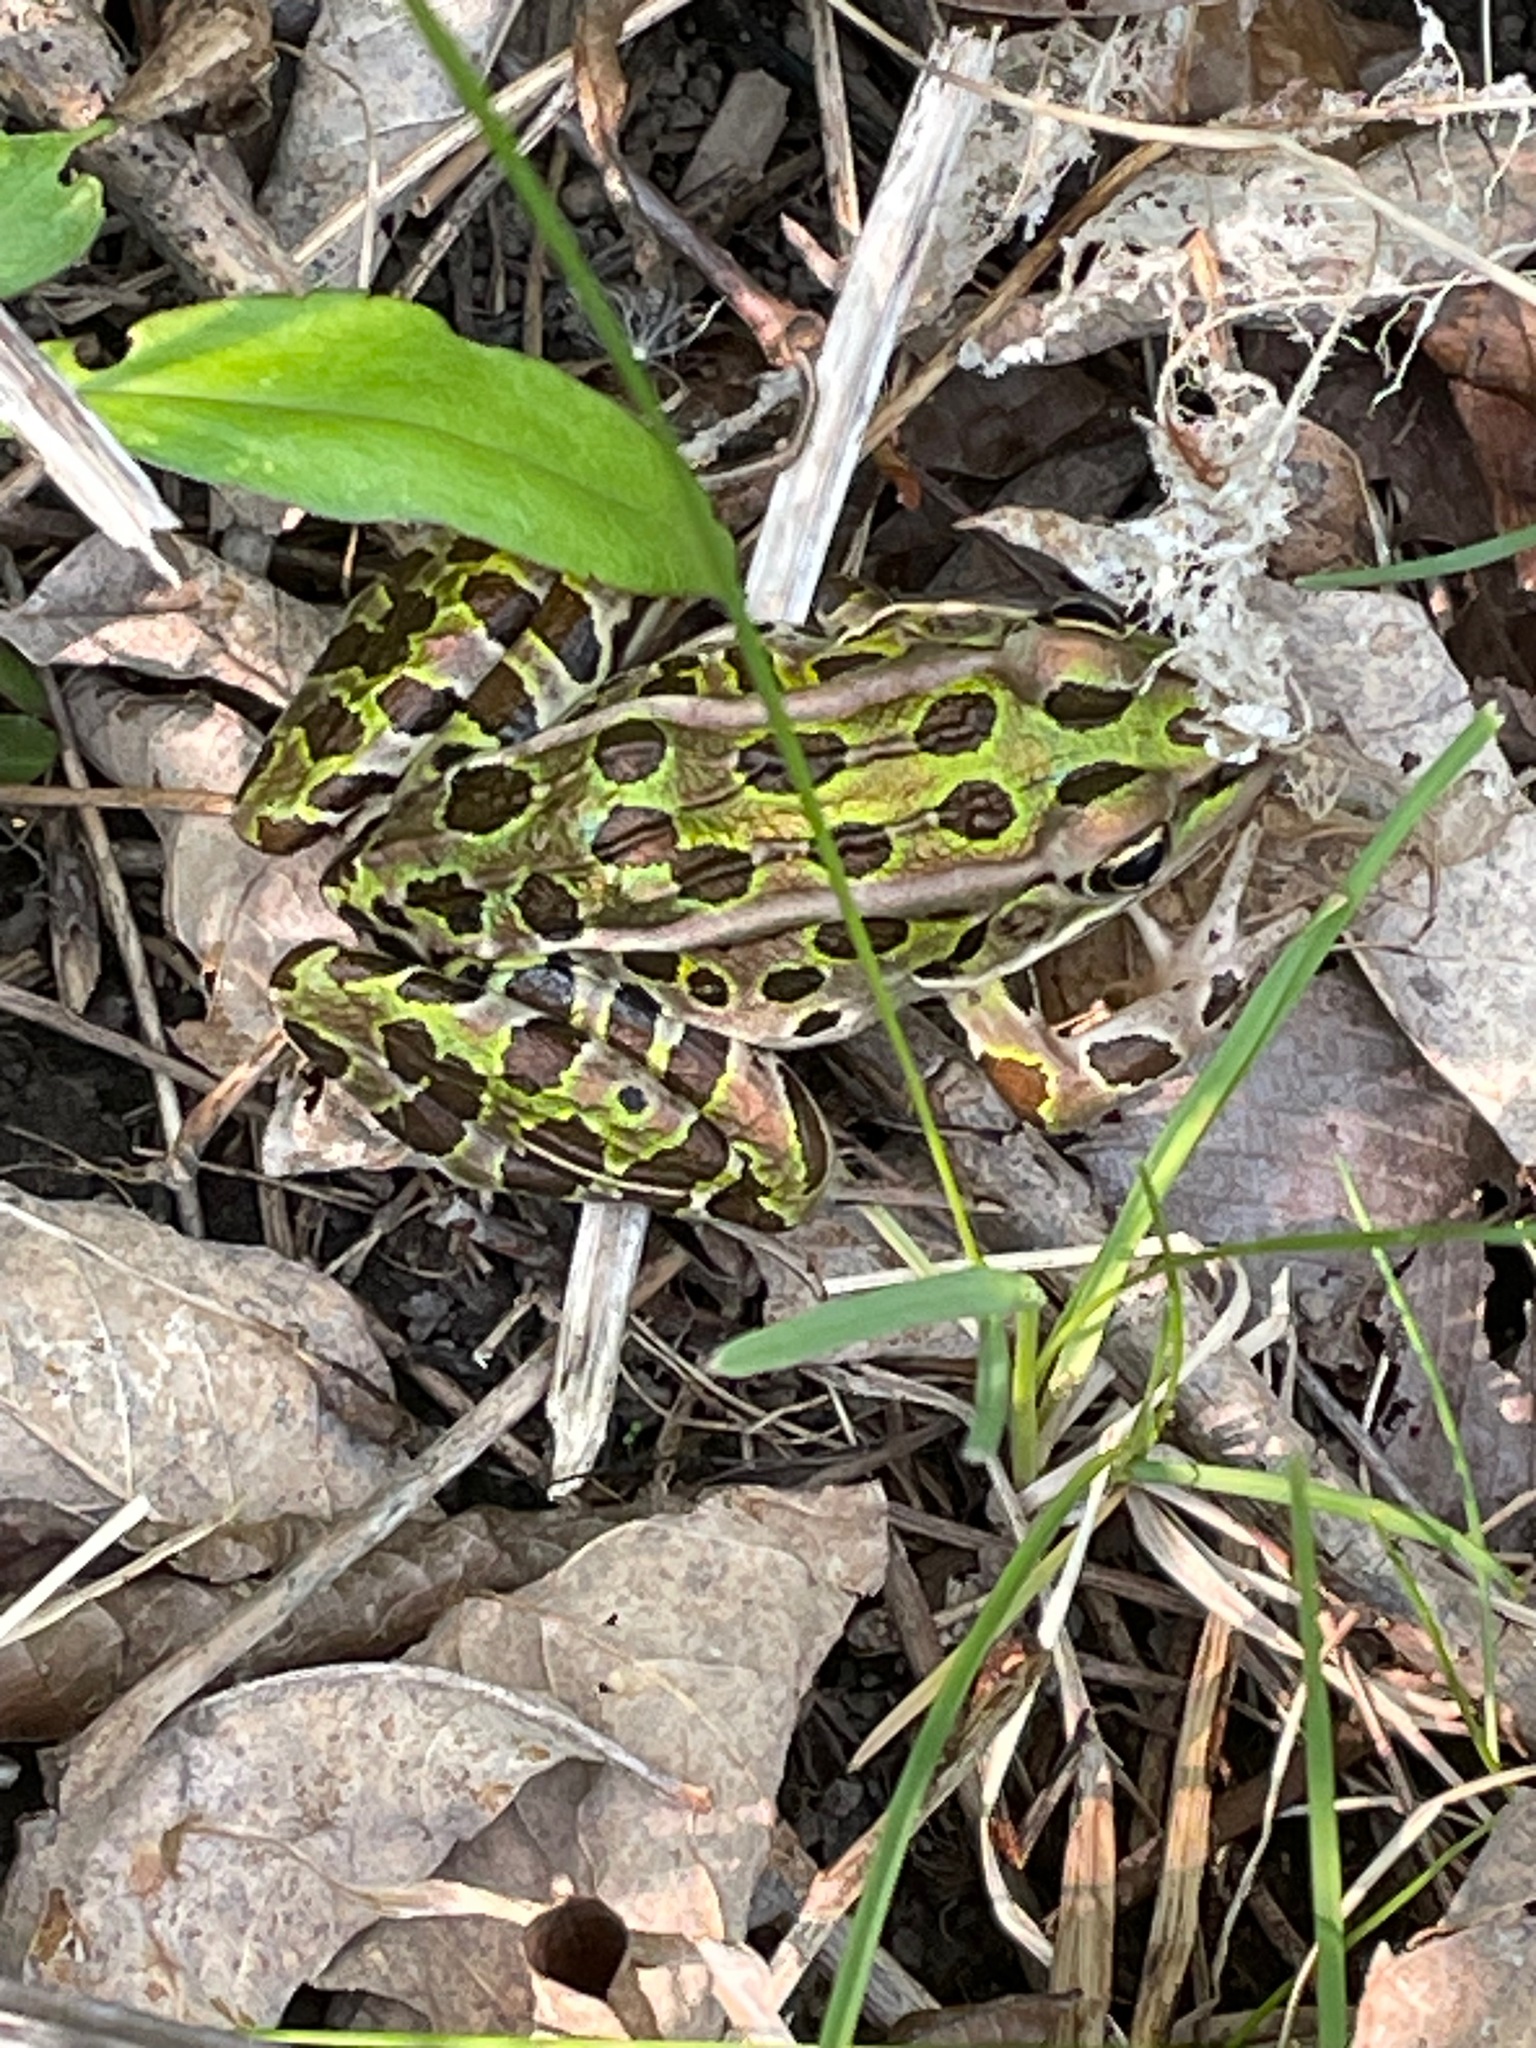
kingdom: Animalia
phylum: Chordata
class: Amphibia
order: Anura
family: Ranidae
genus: Lithobates
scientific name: Lithobates pipiens
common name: Northern leopard frog
